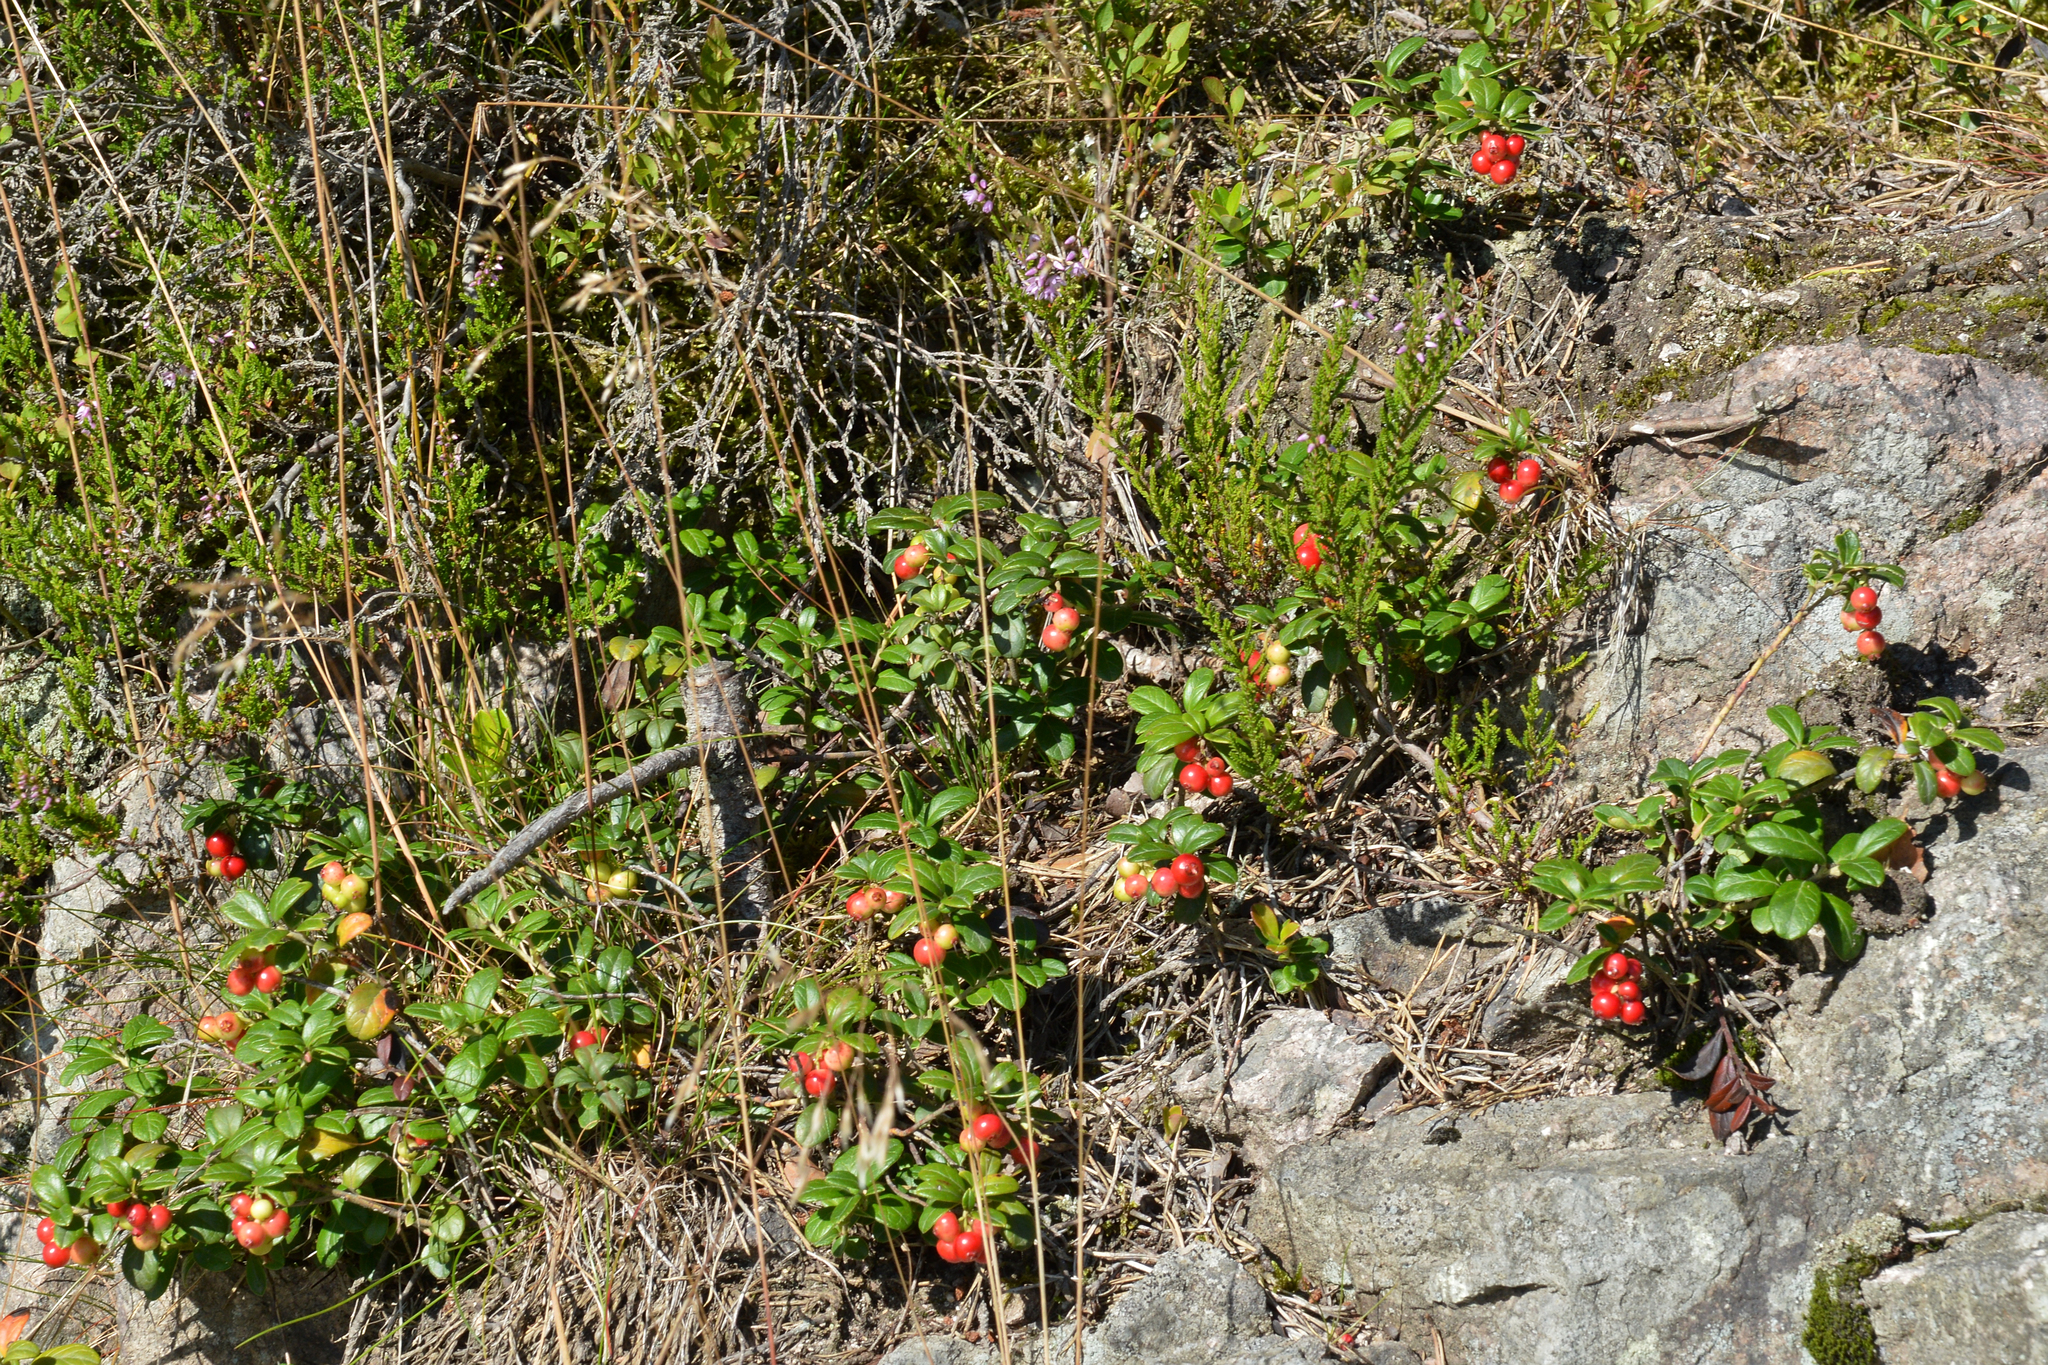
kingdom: Plantae
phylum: Tracheophyta
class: Magnoliopsida
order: Ericales
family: Ericaceae
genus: Vaccinium
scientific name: Vaccinium vitis-idaea
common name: Cowberry
